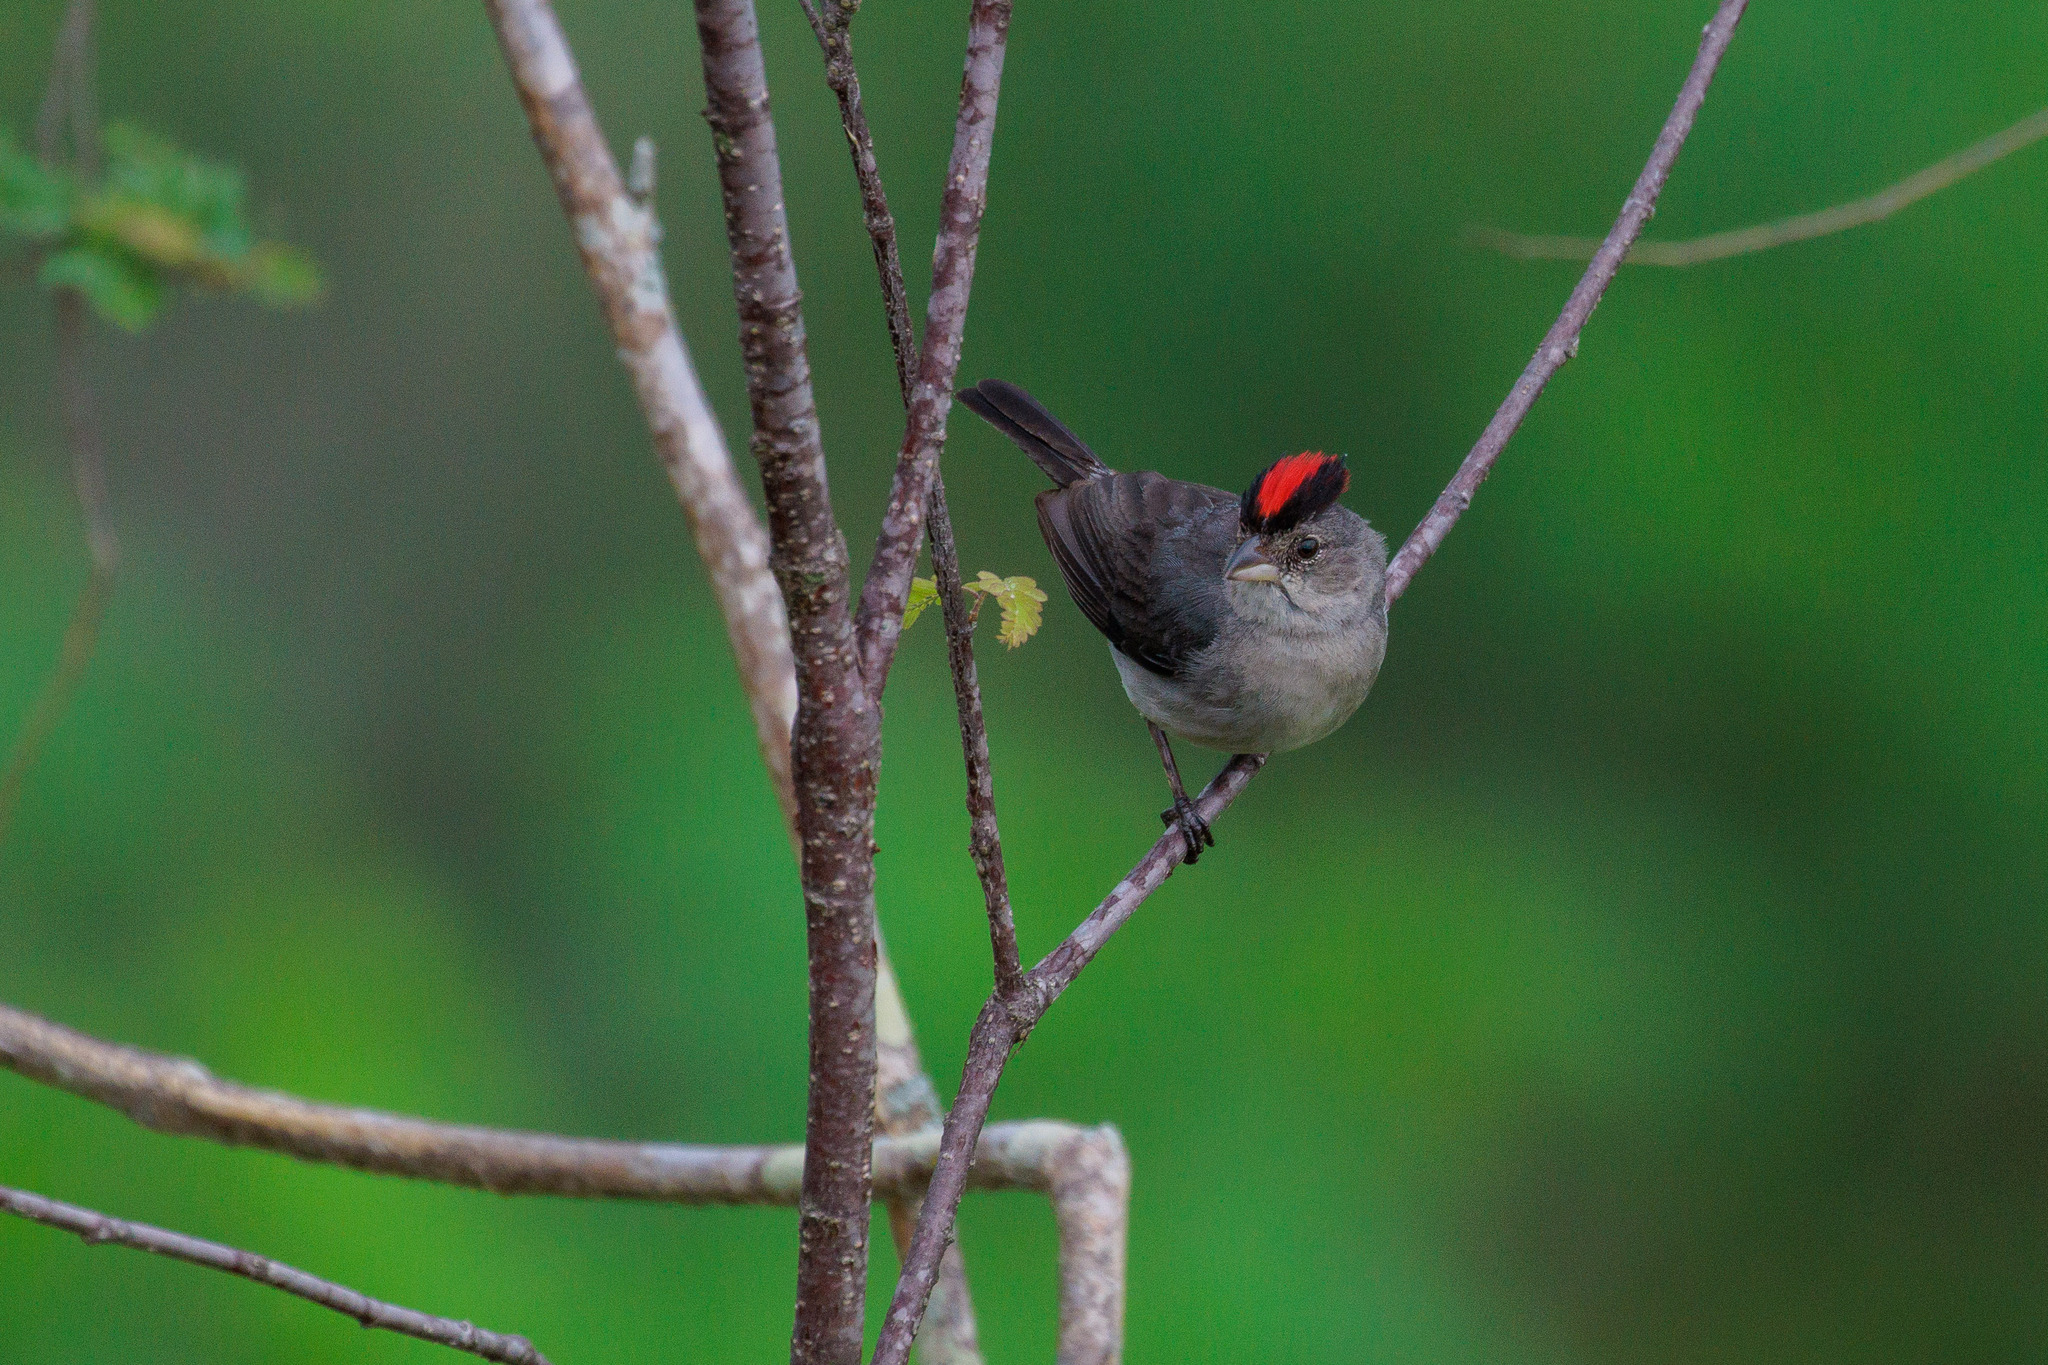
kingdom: Animalia
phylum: Chordata
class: Aves
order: Passeriformes
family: Thraupidae
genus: Coryphospingus
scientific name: Coryphospingus pileatus
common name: Grey pileated finch
